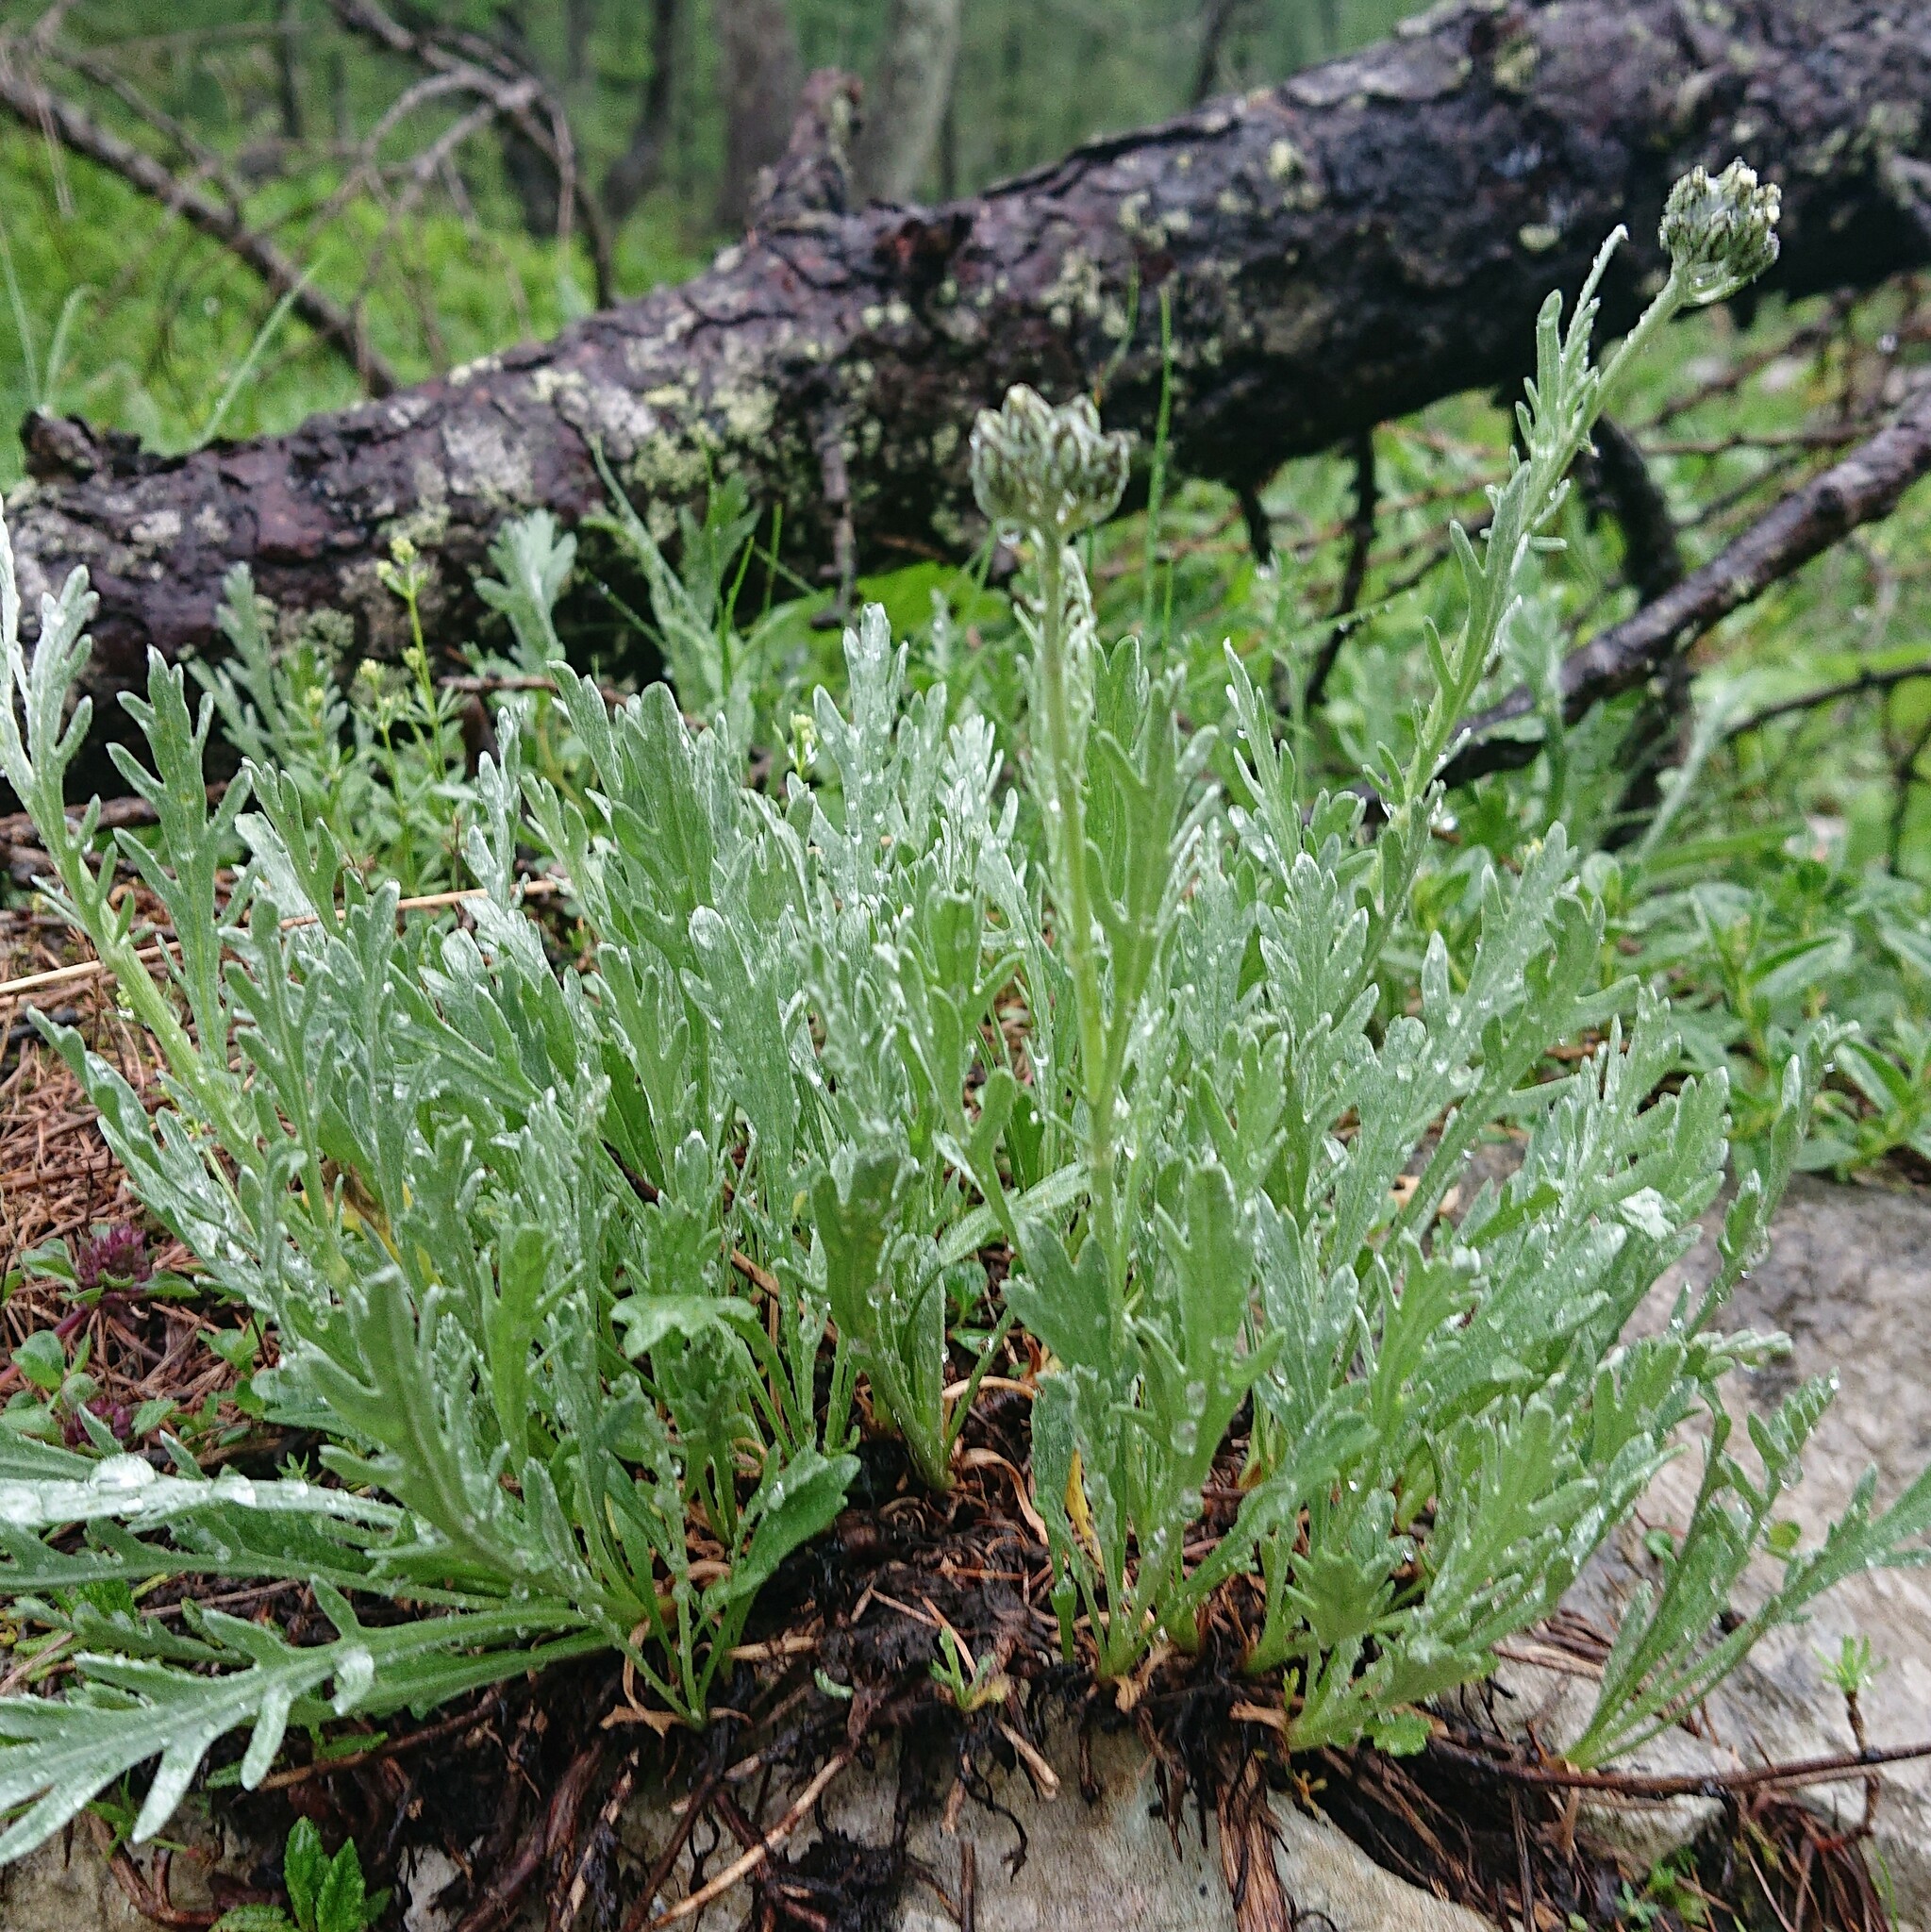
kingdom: Plantae
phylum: Tracheophyta
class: Magnoliopsida
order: Asterales
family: Asteraceae
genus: Achillea
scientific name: Achillea clavennae
